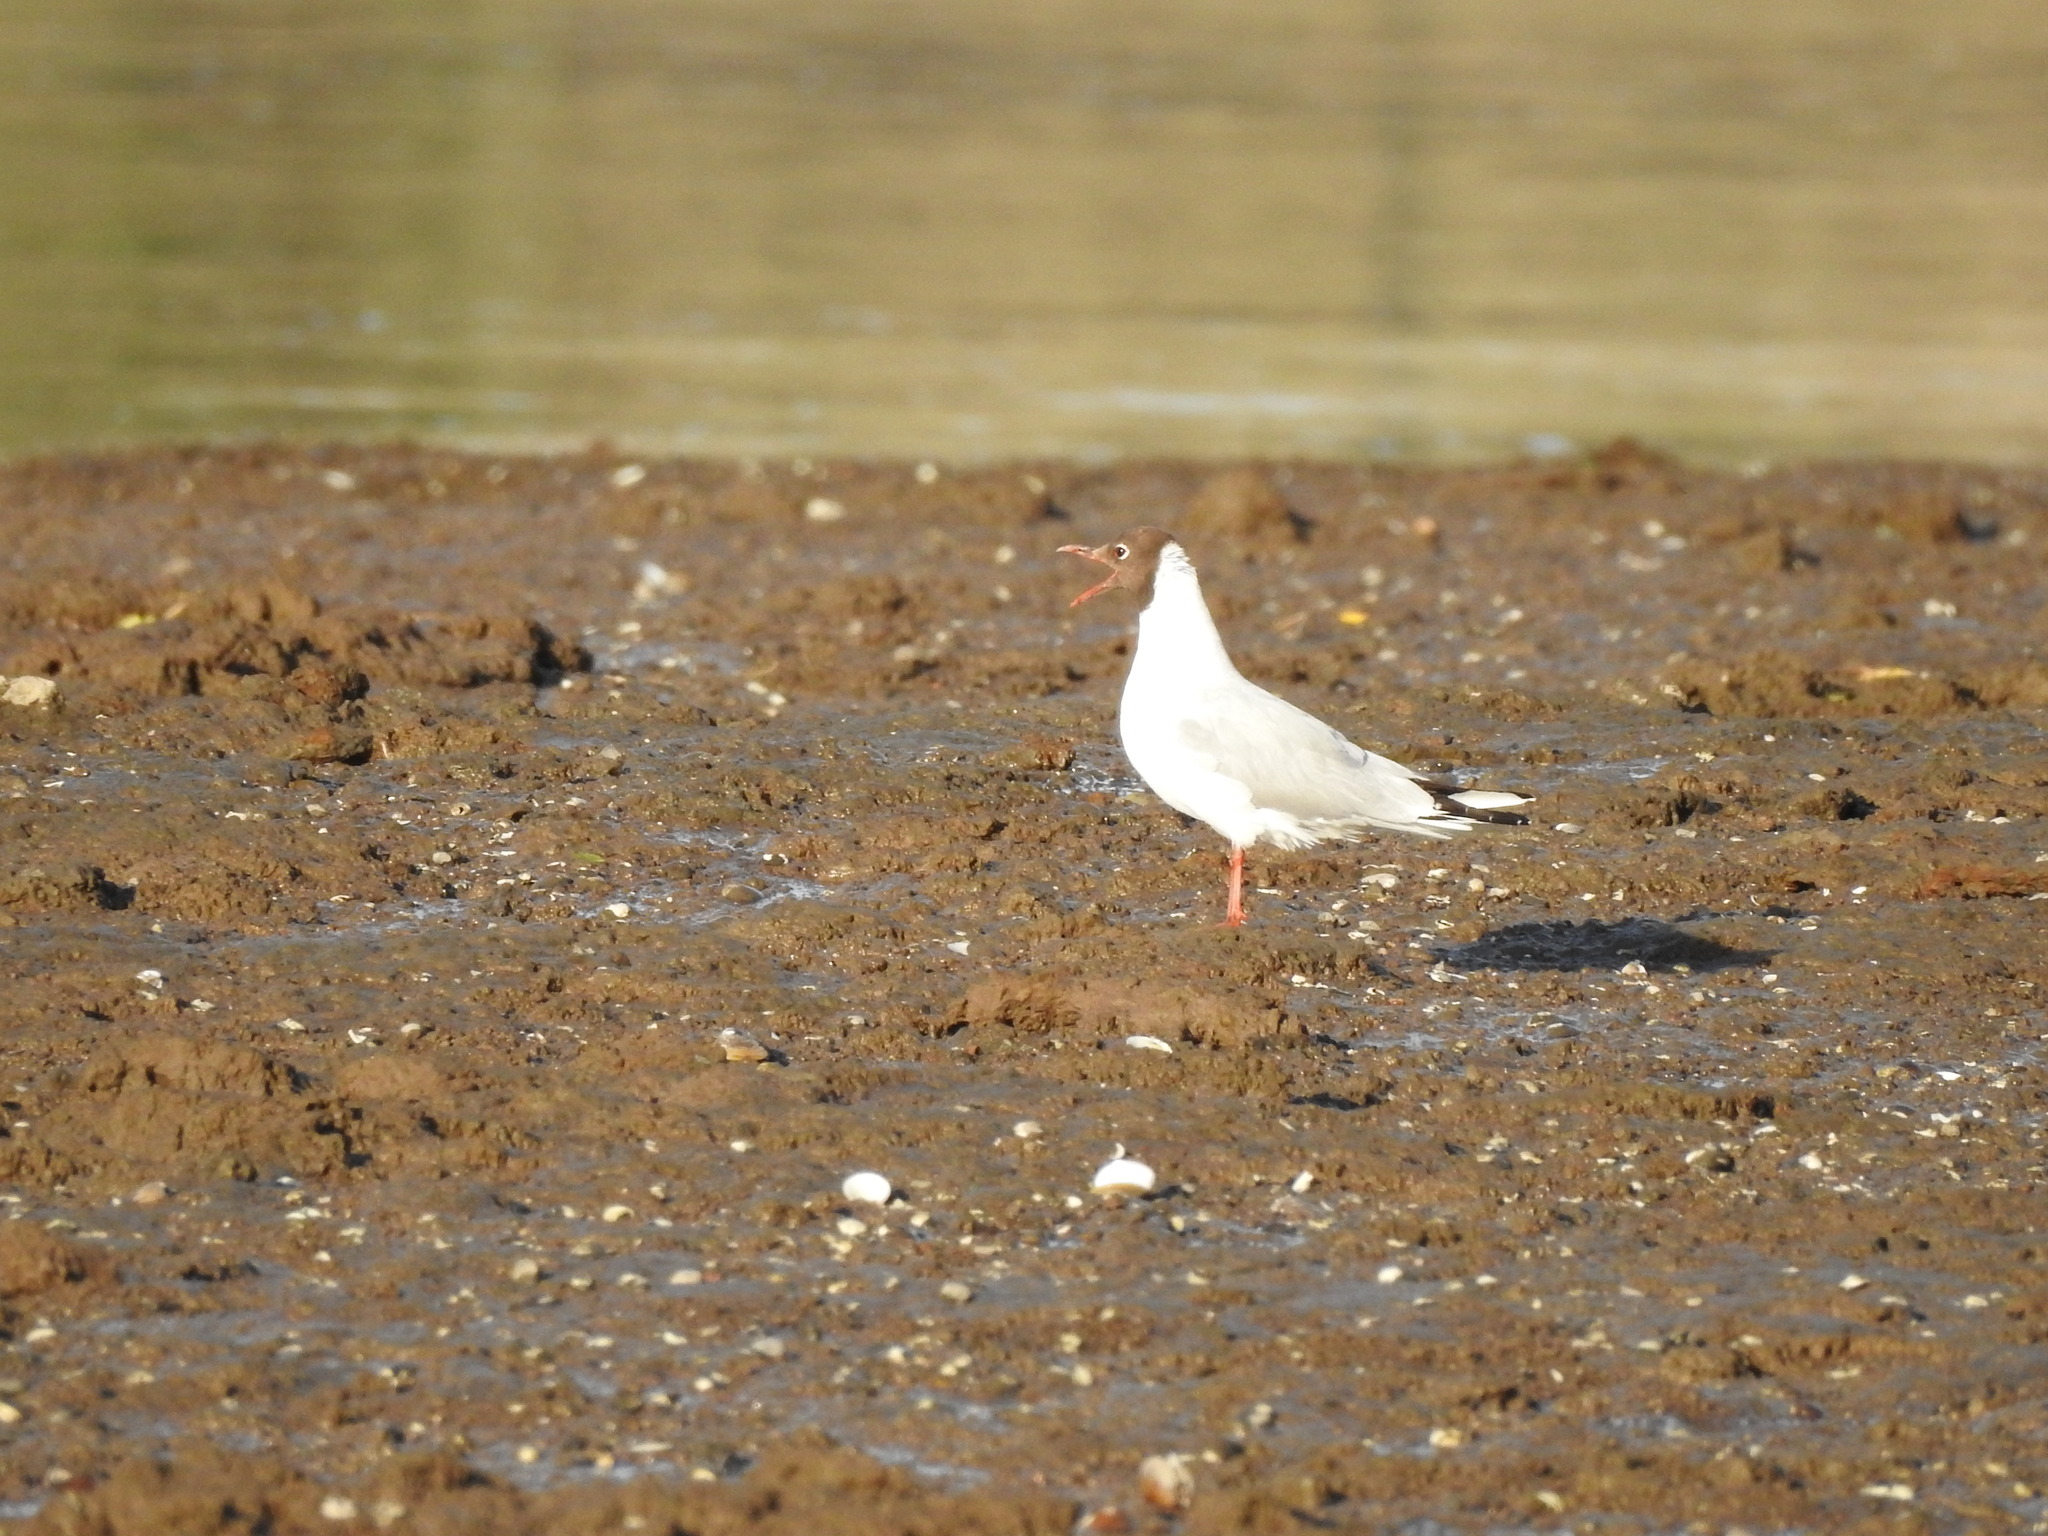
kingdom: Animalia
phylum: Chordata
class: Aves
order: Charadriiformes
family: Laridae
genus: Chroicocephalus
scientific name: Chroicocephalus maculipennis
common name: Brown-hooded gull
